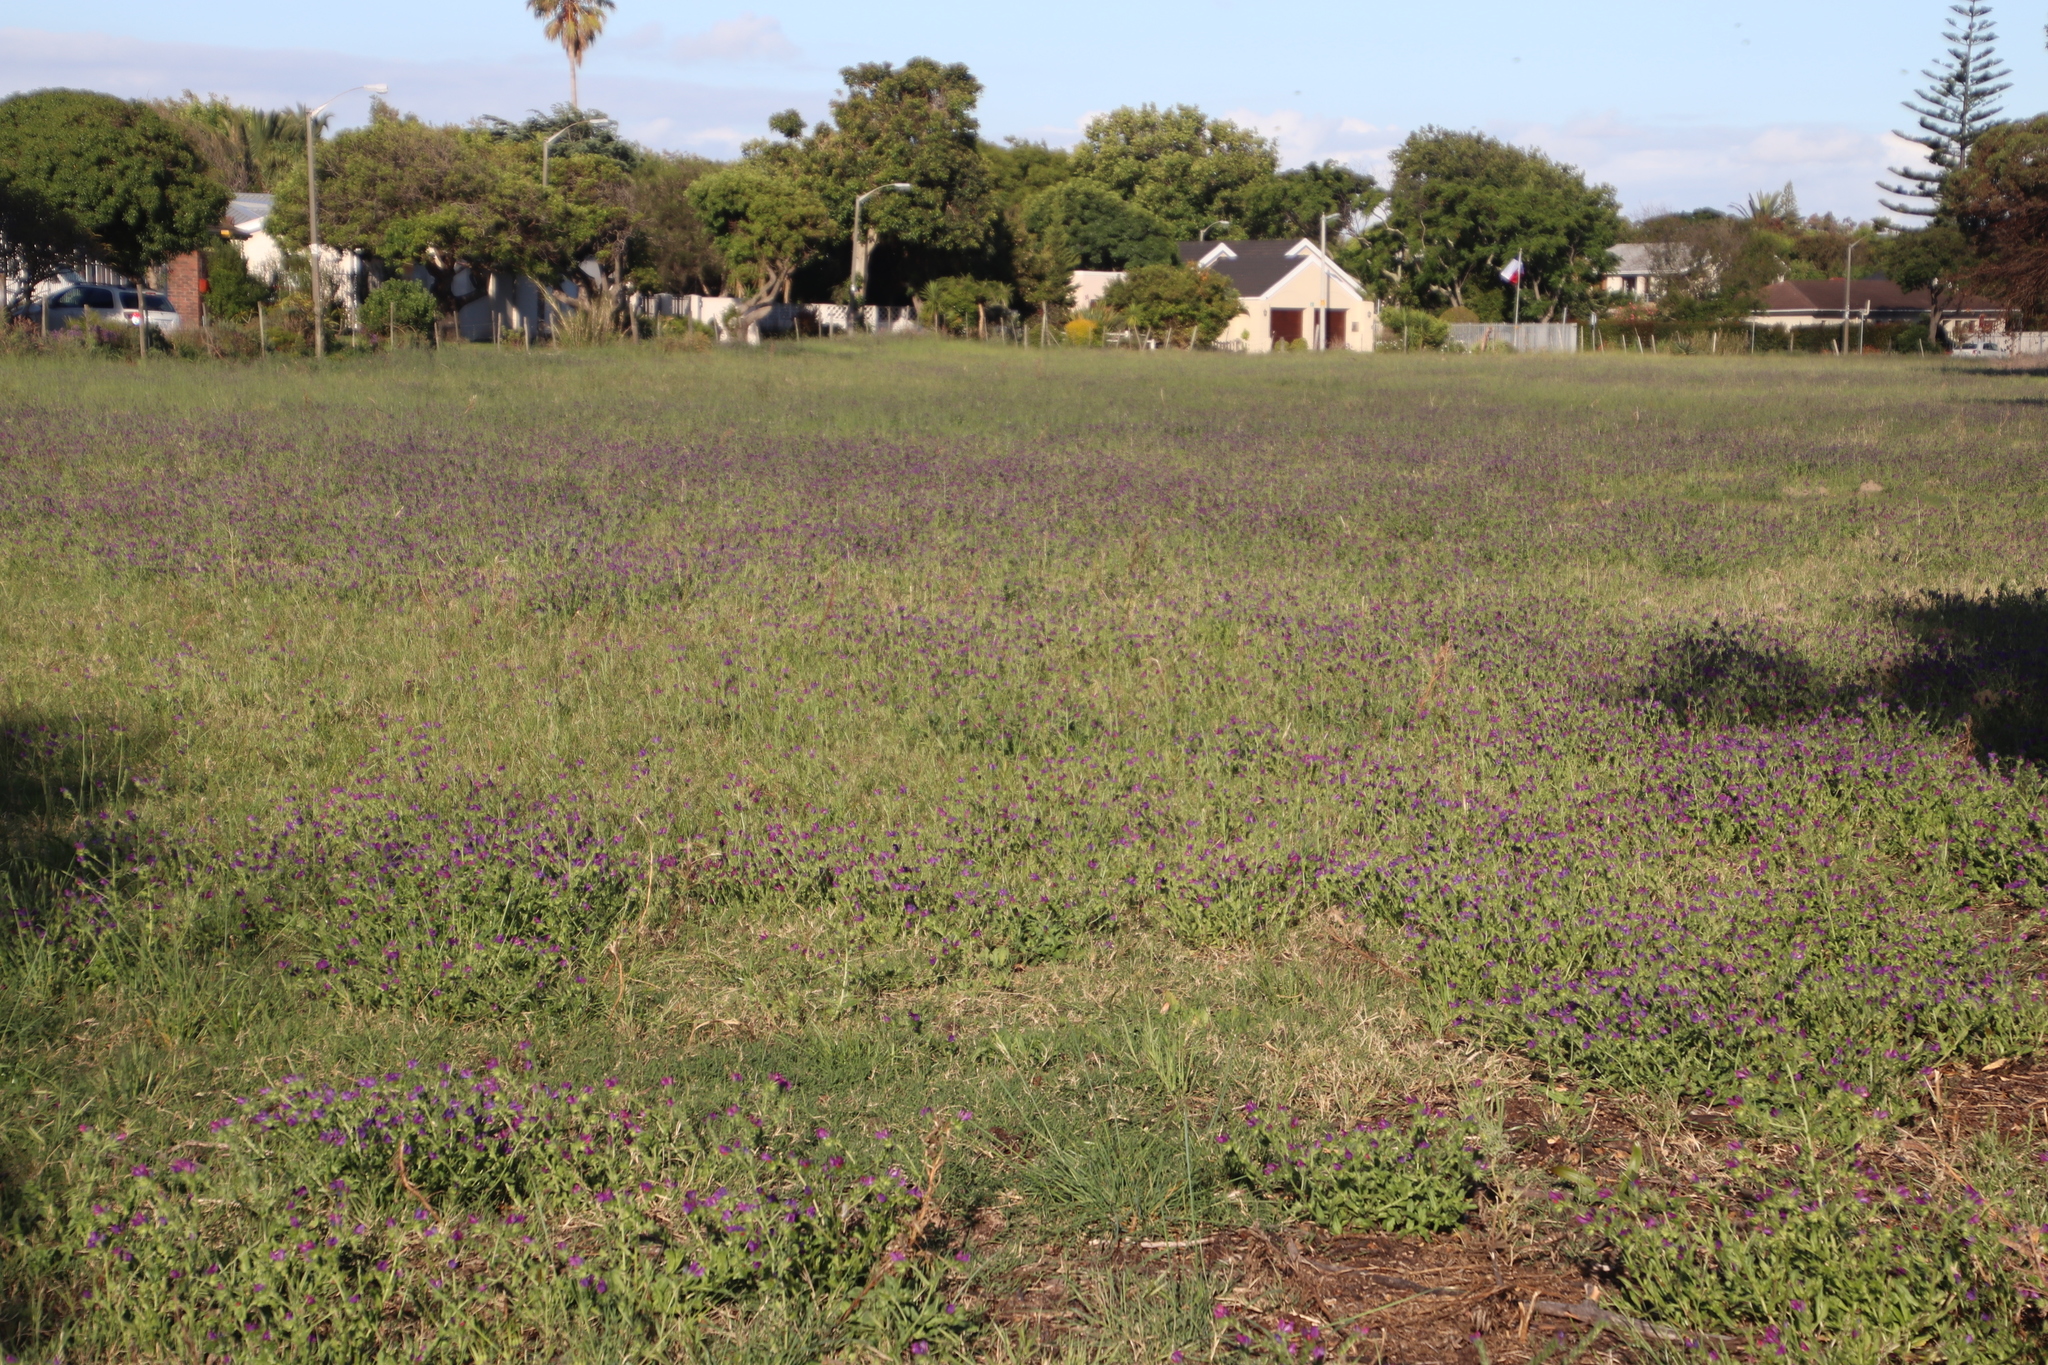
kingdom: Plantae
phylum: Tracheophyta
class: Magnoliopsida
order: Boraginales
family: Boraginaceae
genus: Echium
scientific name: Echium plantagineum
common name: Purple viper's-bugloss
